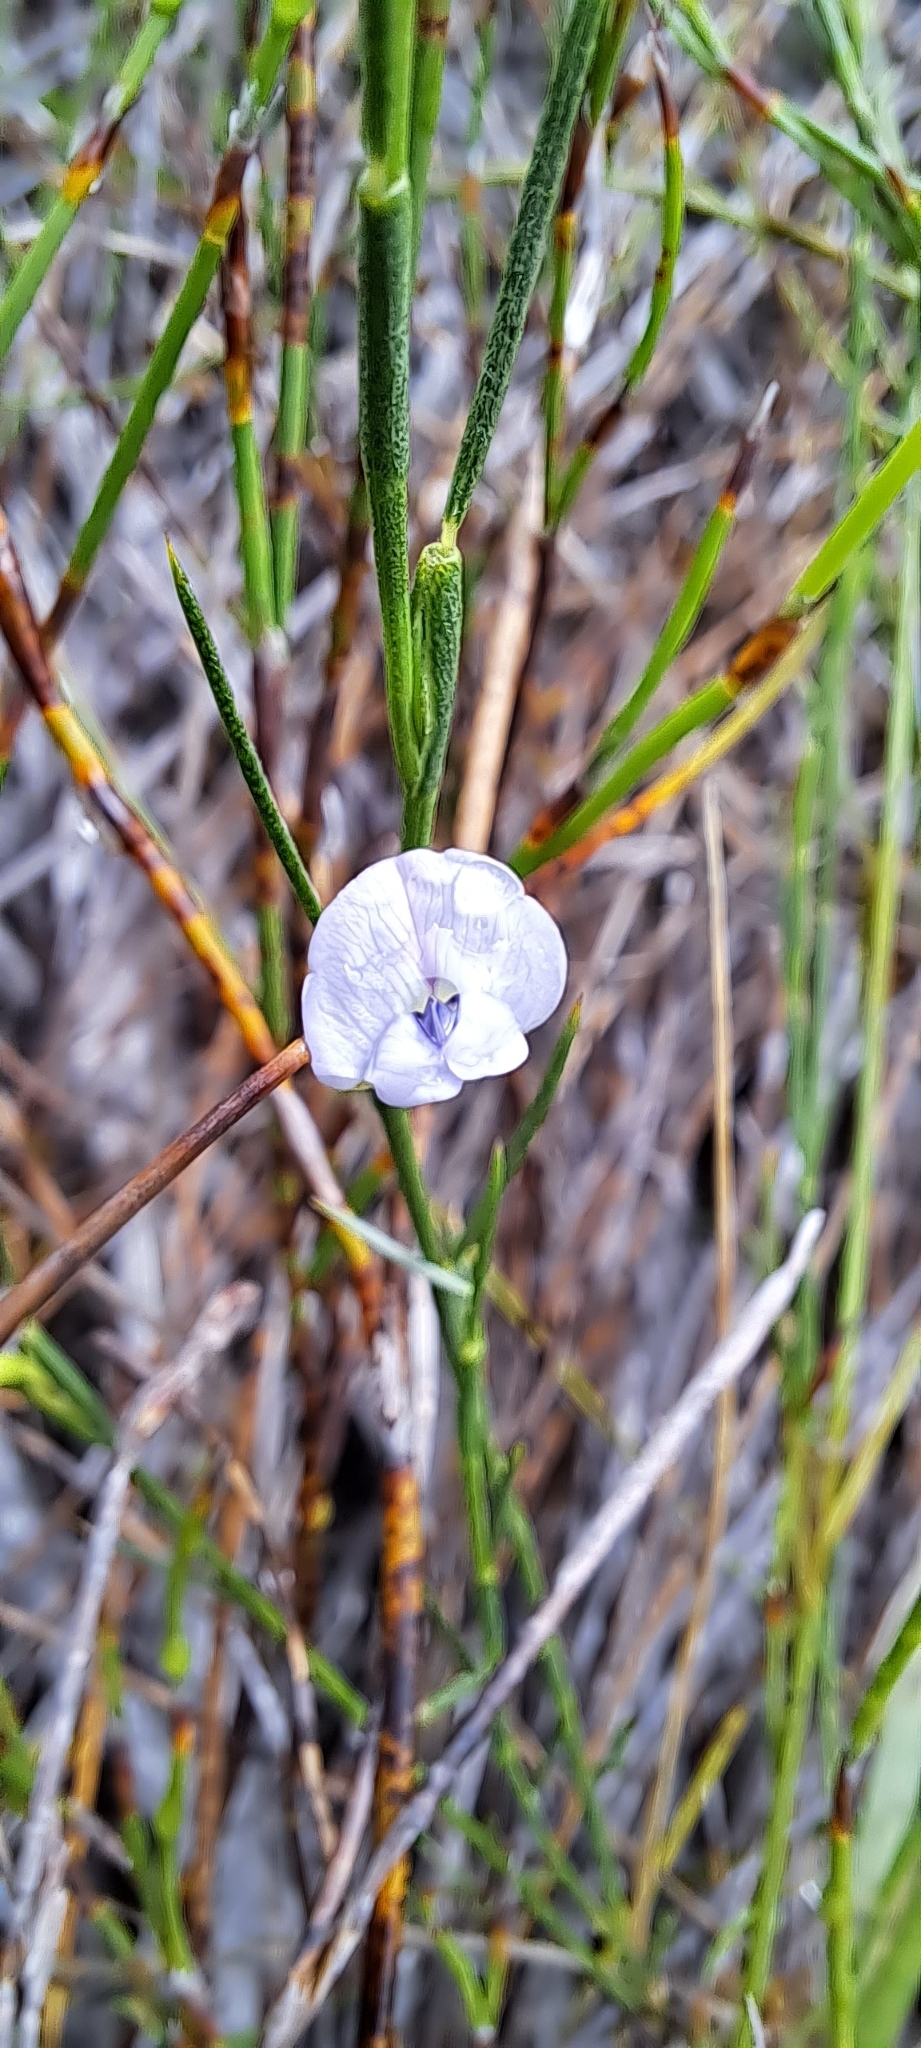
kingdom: Plantae
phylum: Tracheophyta
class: Magnoliopsida
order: Fabales
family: Fabaceae
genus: Psoralea
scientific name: Psoralea restioides
